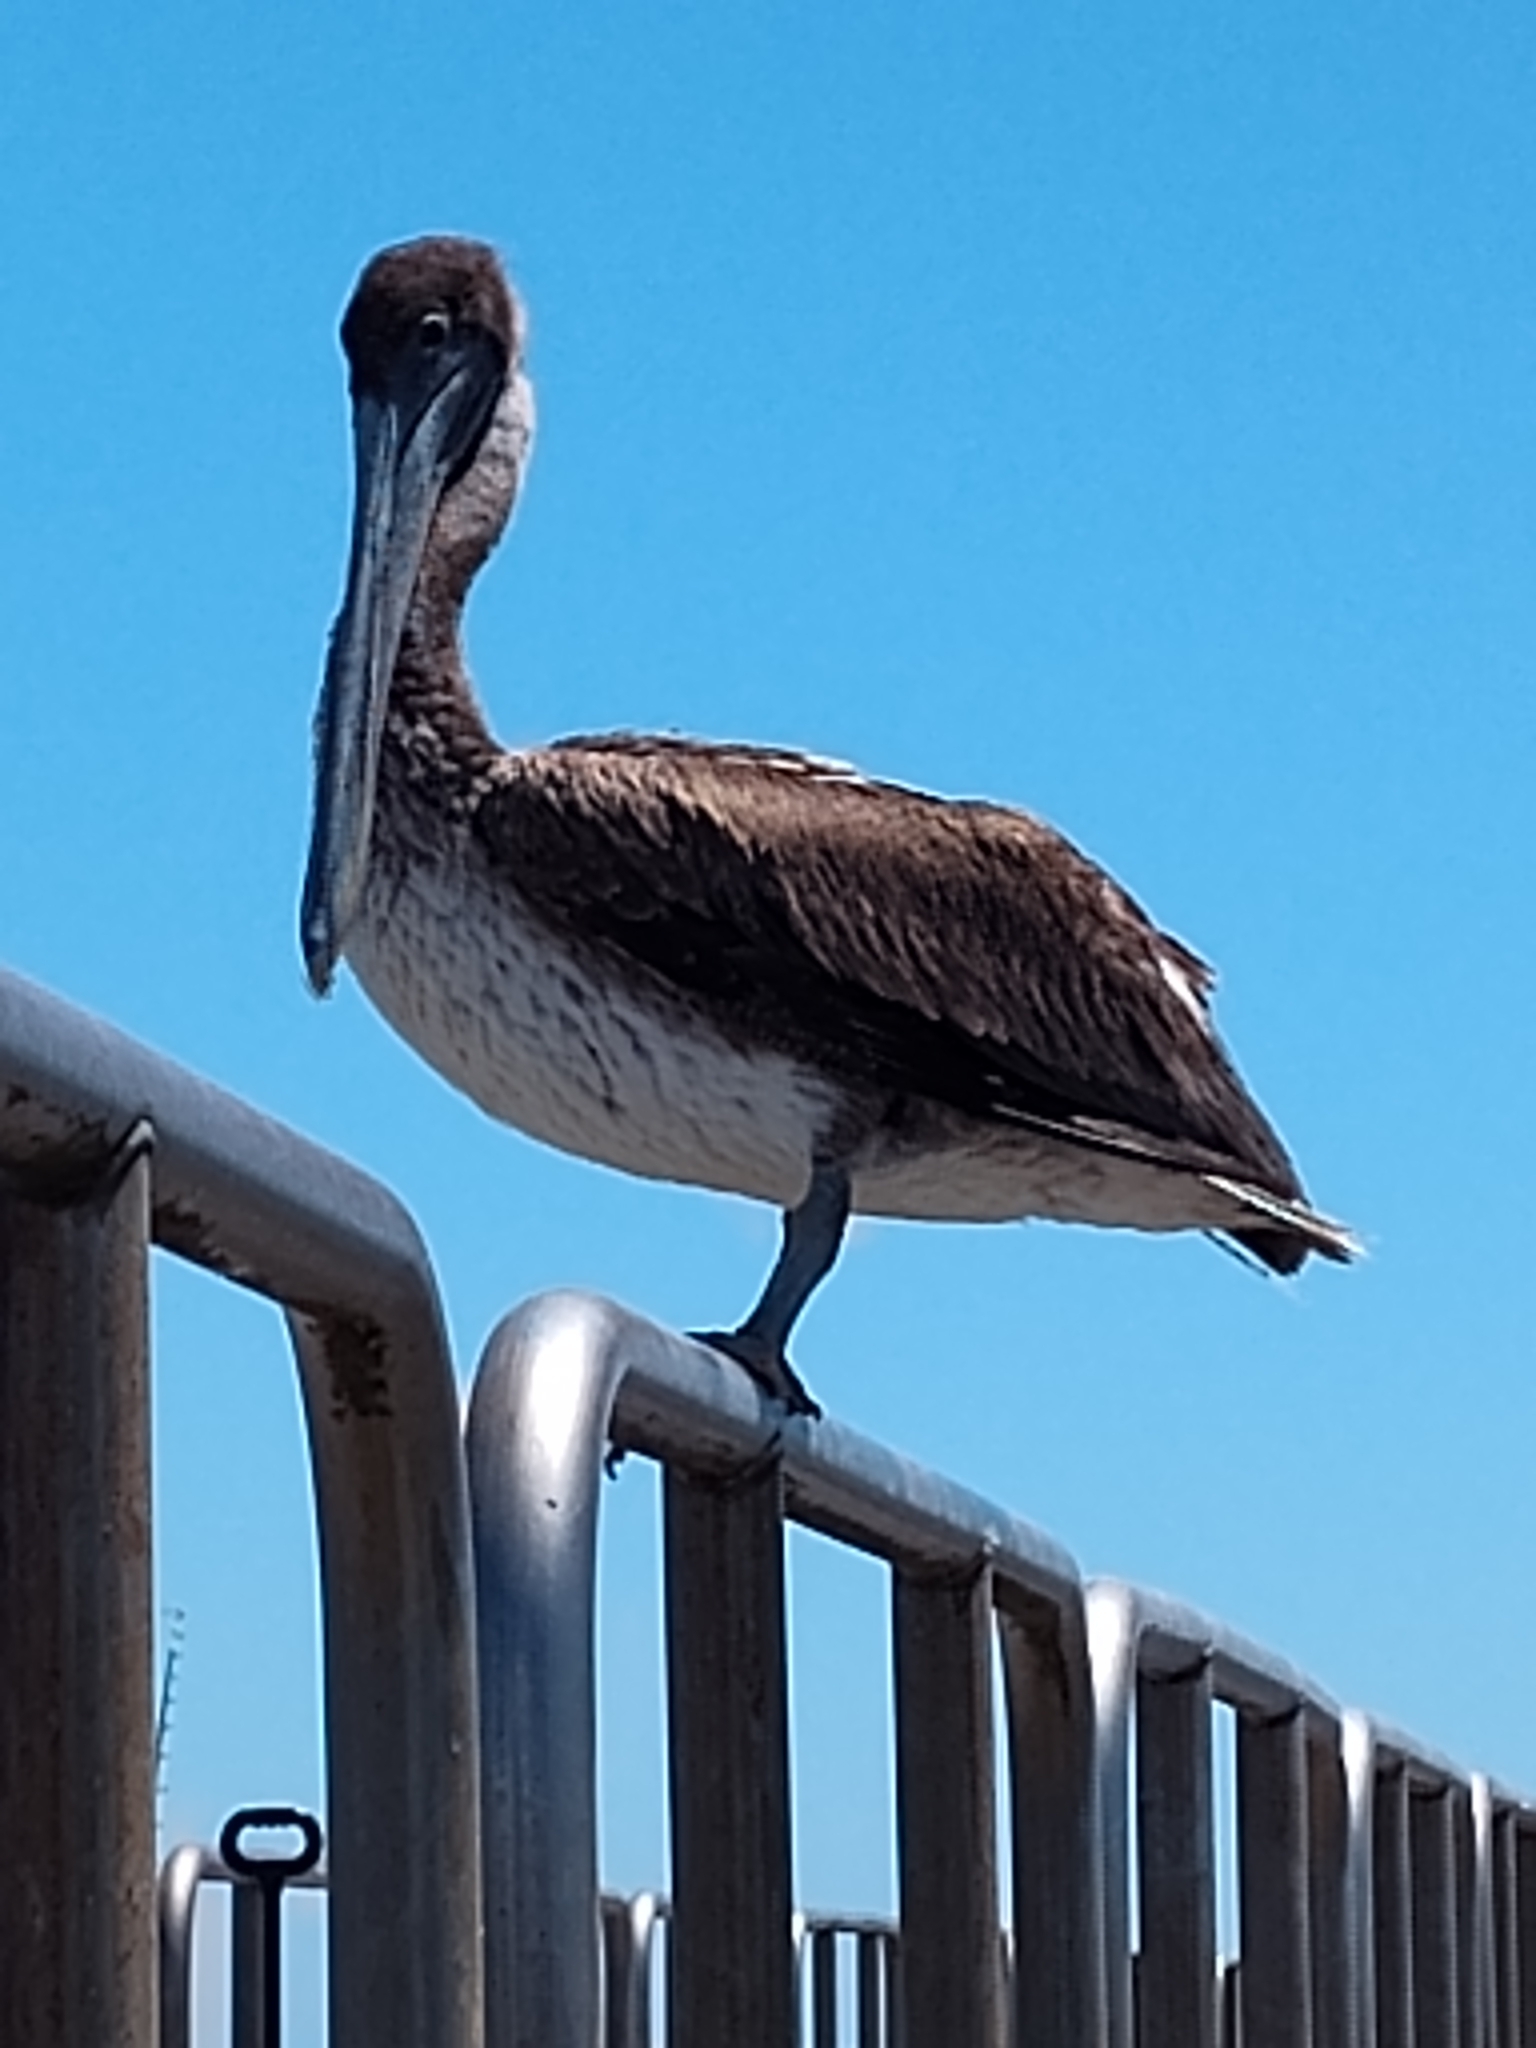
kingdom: Animalia
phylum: Chordata
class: Aves
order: Pelecaniformes
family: Pelecanidae
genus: Pelecanus
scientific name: Pelecanus occidentalis
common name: Brown pelican
